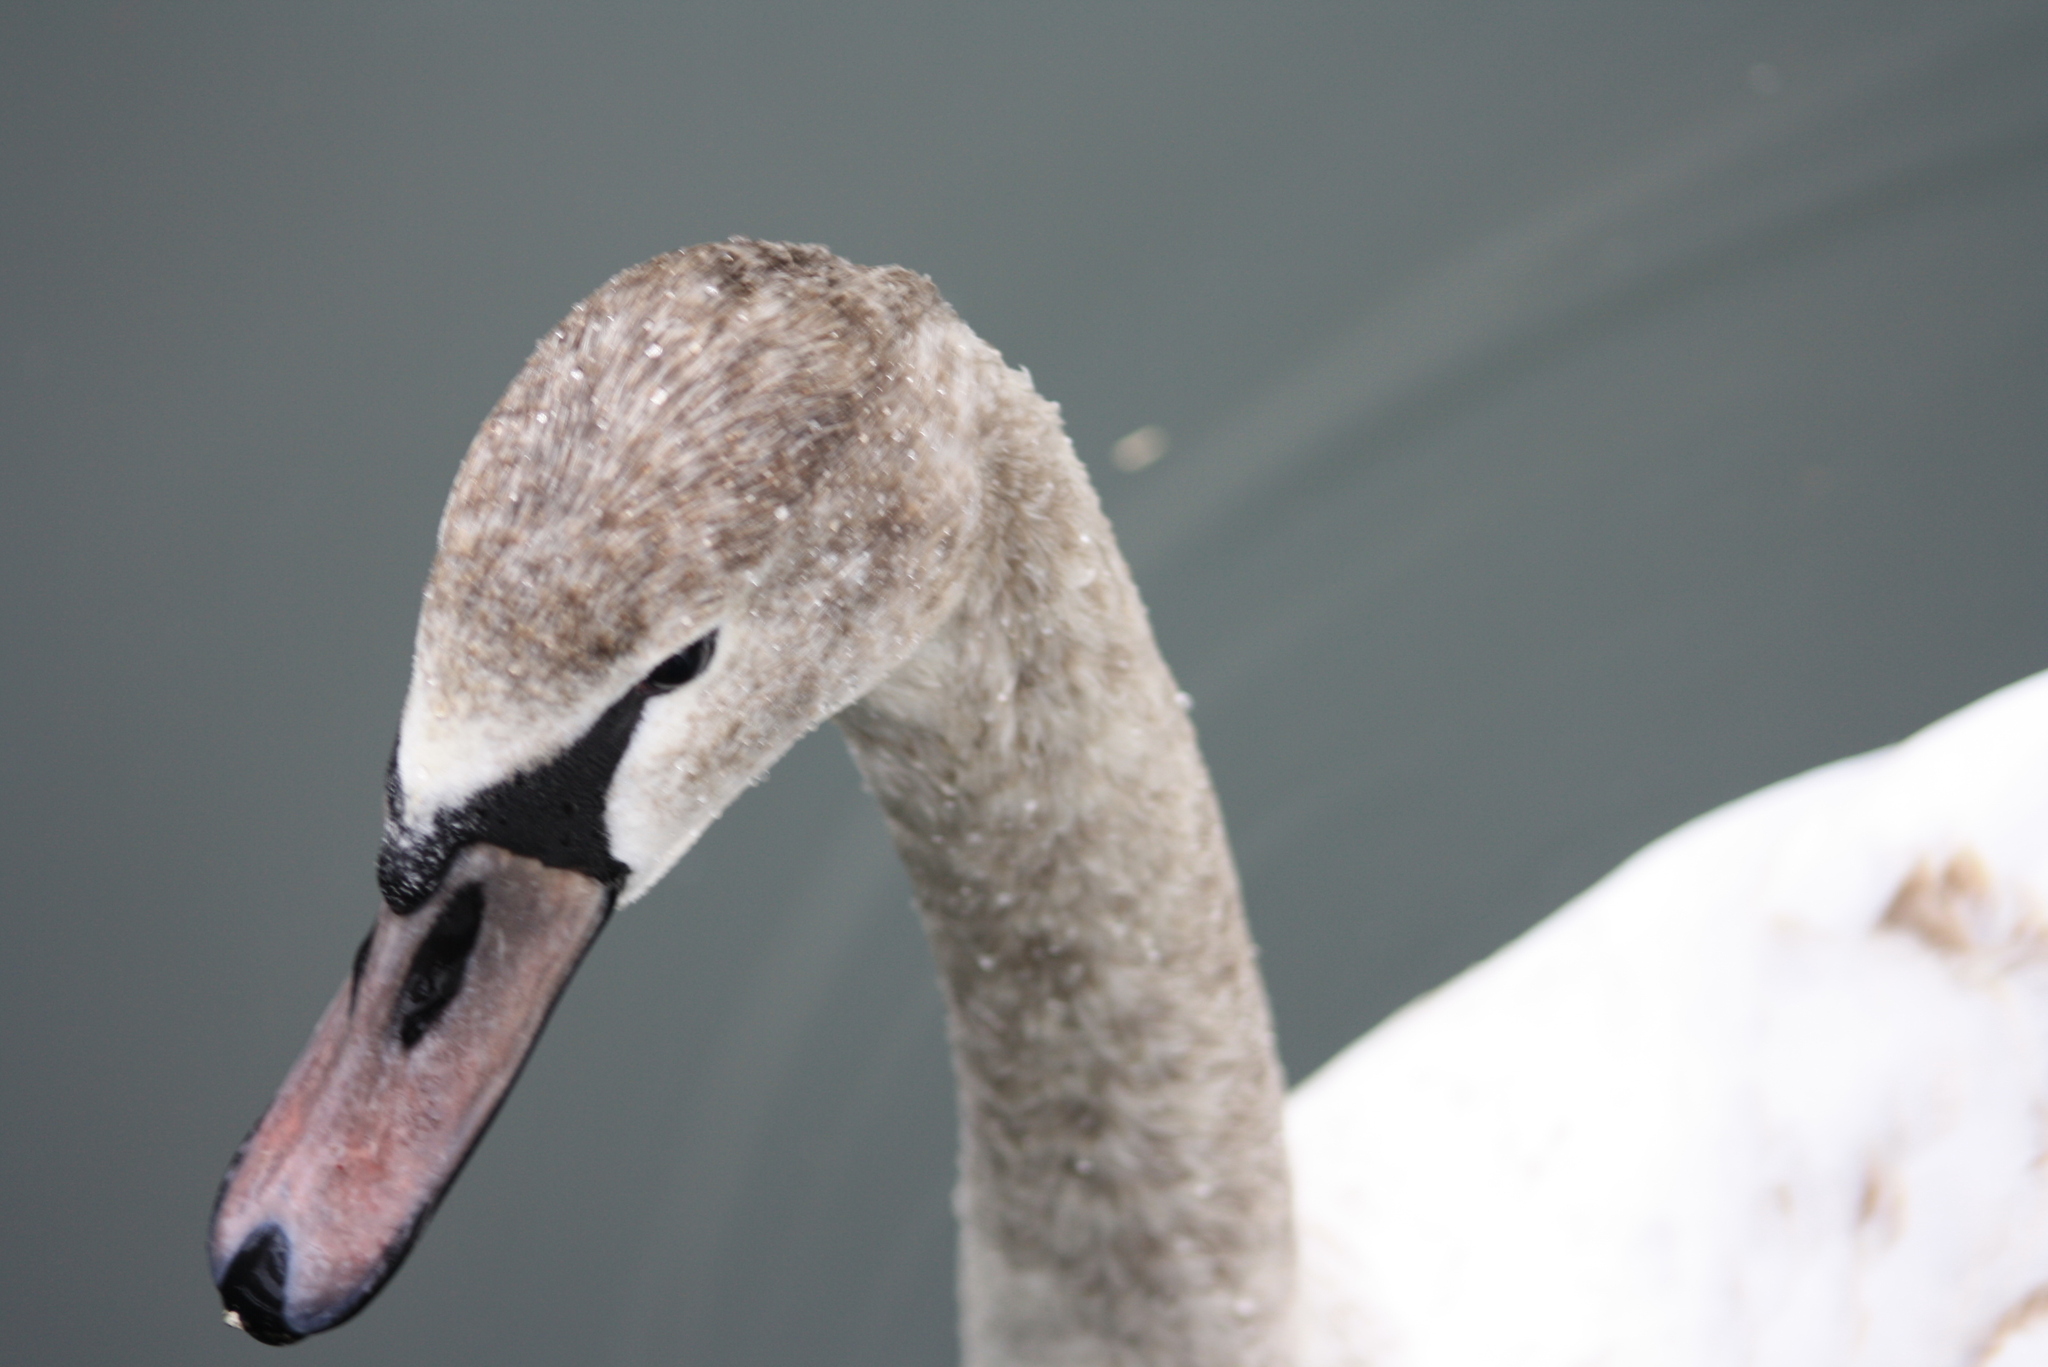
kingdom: Animalia
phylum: Chordata
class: Aves
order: Anseriformes
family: Anatidae
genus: Cygnus
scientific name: Cygnus olor
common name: Mute swan
